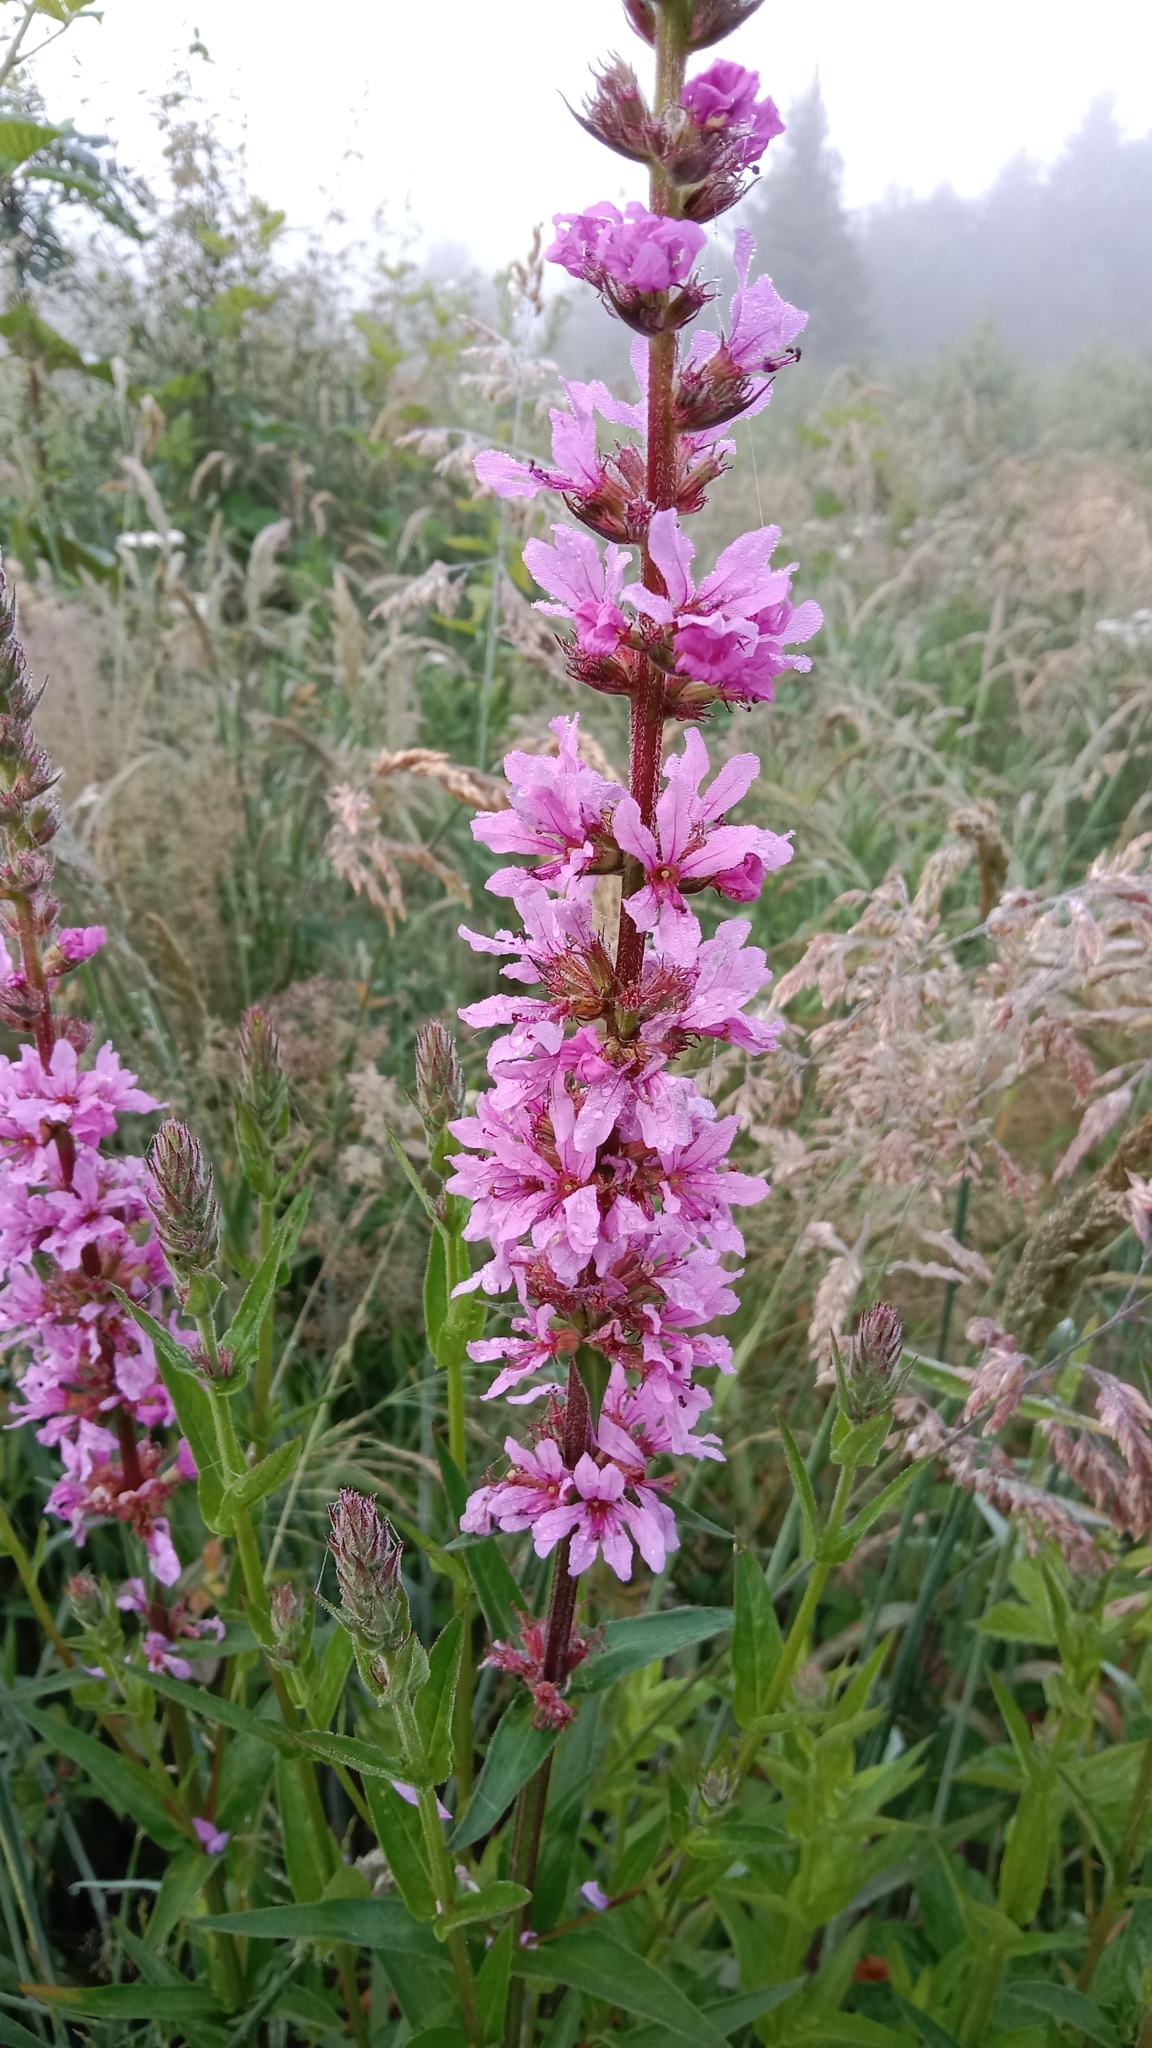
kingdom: Plantae
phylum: Tracheophyta
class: Magnoliopsida
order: Myrtales
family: Lythraceae
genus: Lythrum
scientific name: Lythrum salicaria
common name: Purple loosestrife
